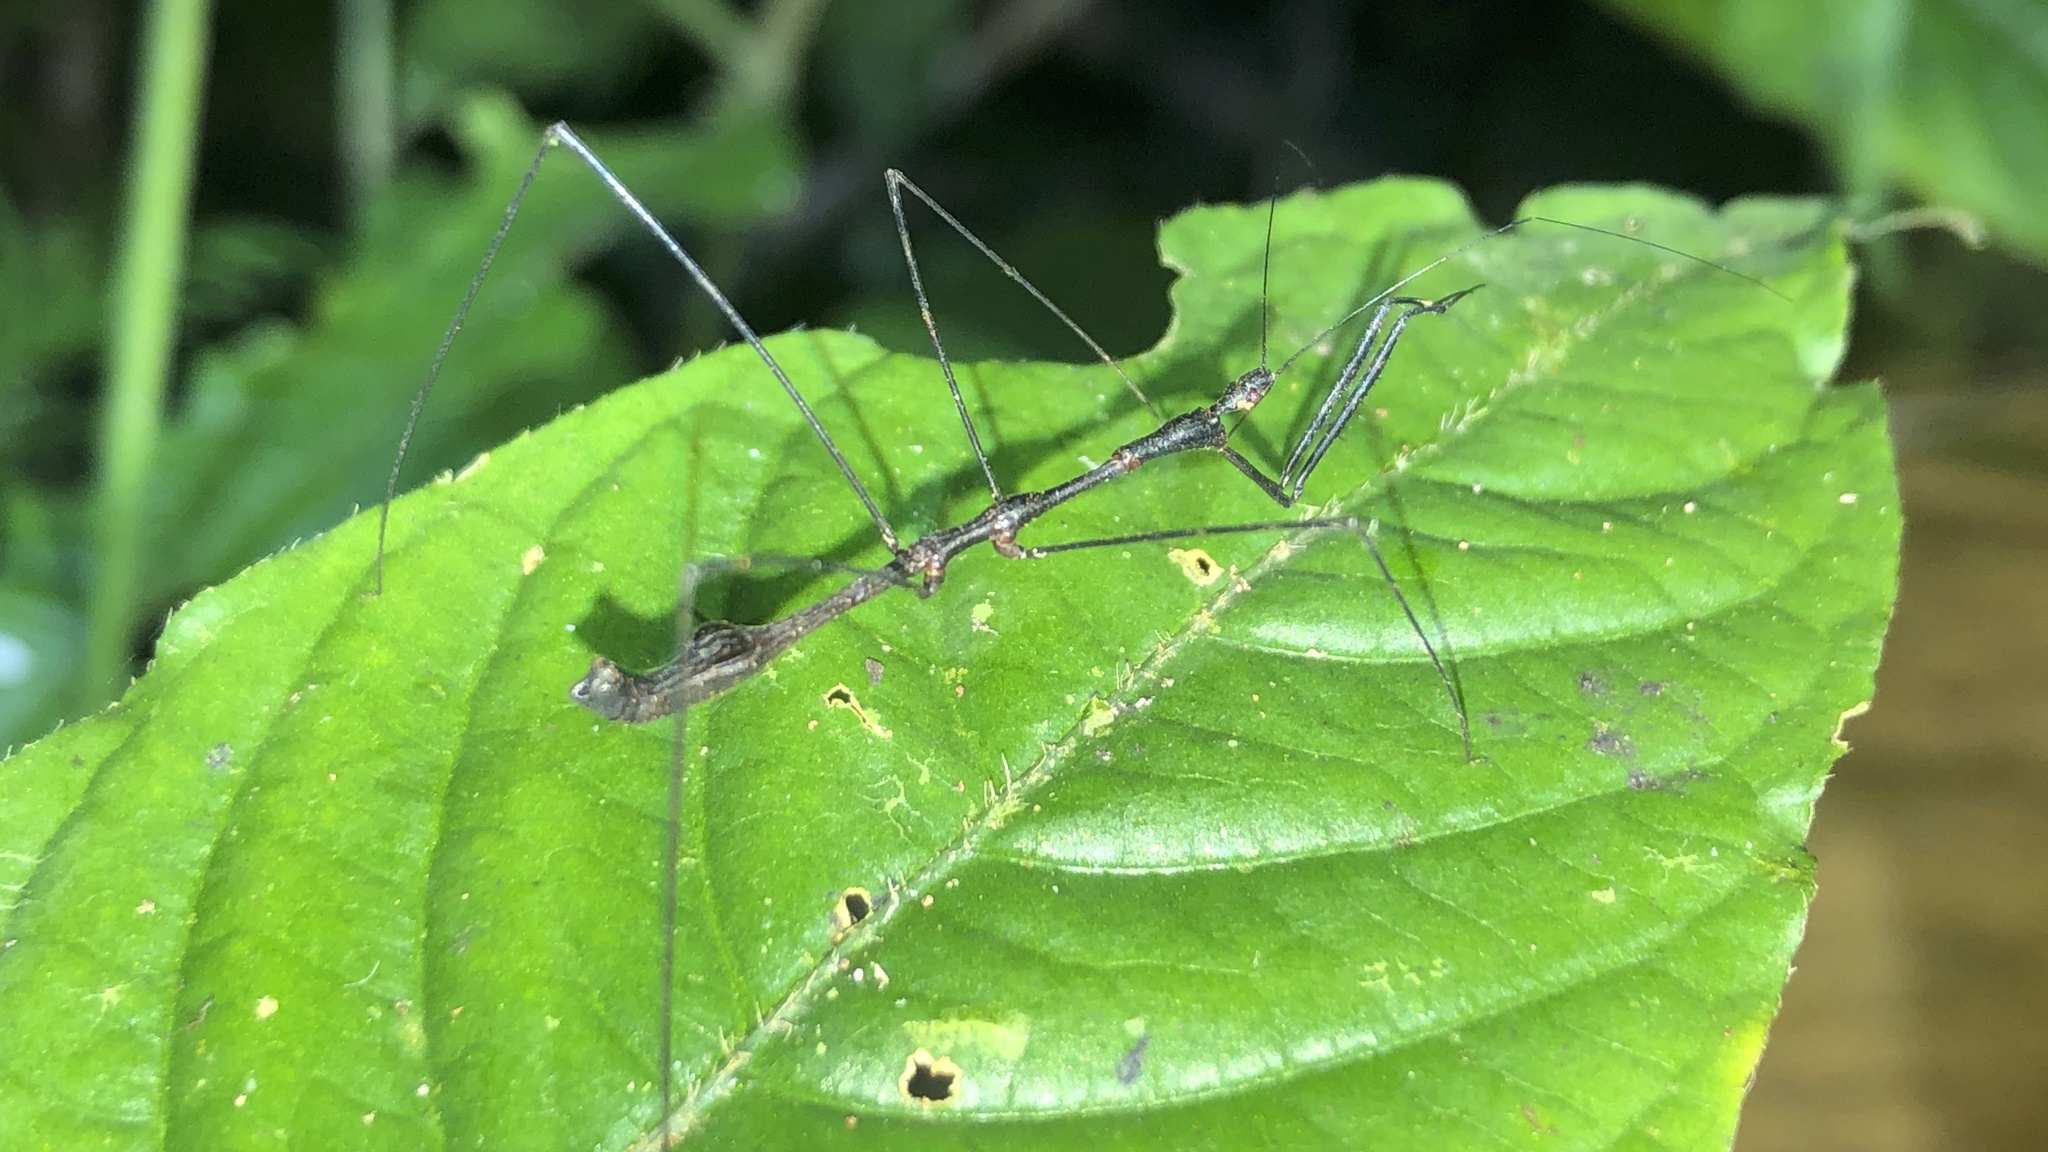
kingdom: Animalia
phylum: Arthropoda
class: Insecta
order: Hemiptera
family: Reduviidae
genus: Ghilianella
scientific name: Ghilianella strigata
